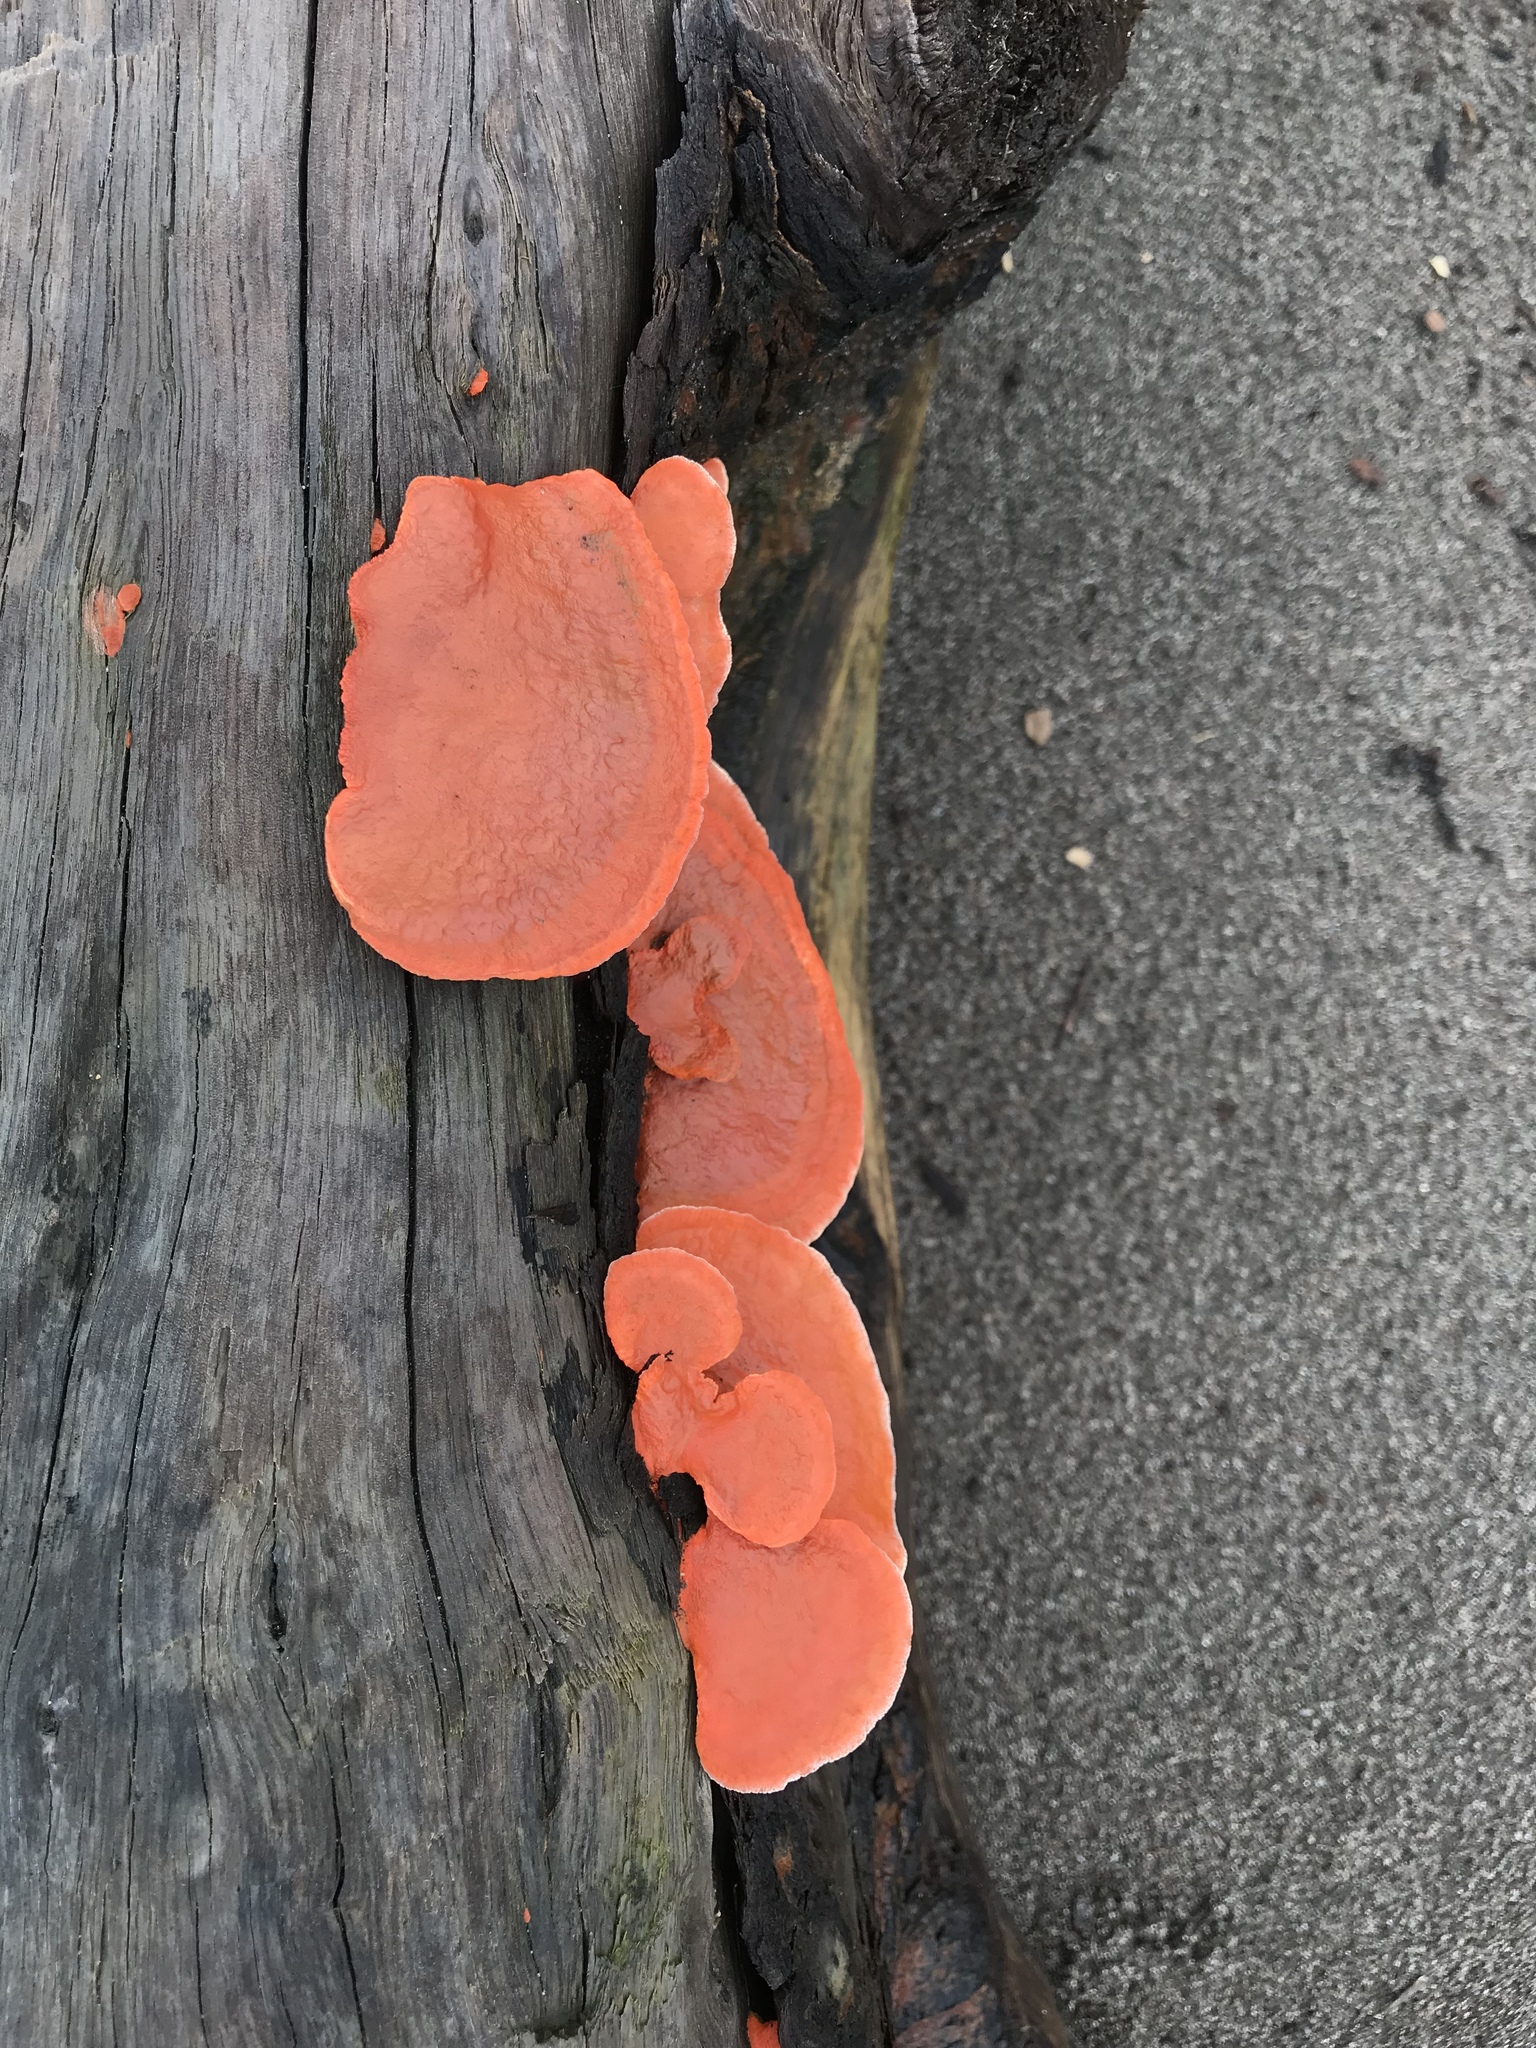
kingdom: Fungi
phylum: Basidiomycota
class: Agaricomycetes
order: Polyporales
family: Polyporaceae
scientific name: Polyporaceae
